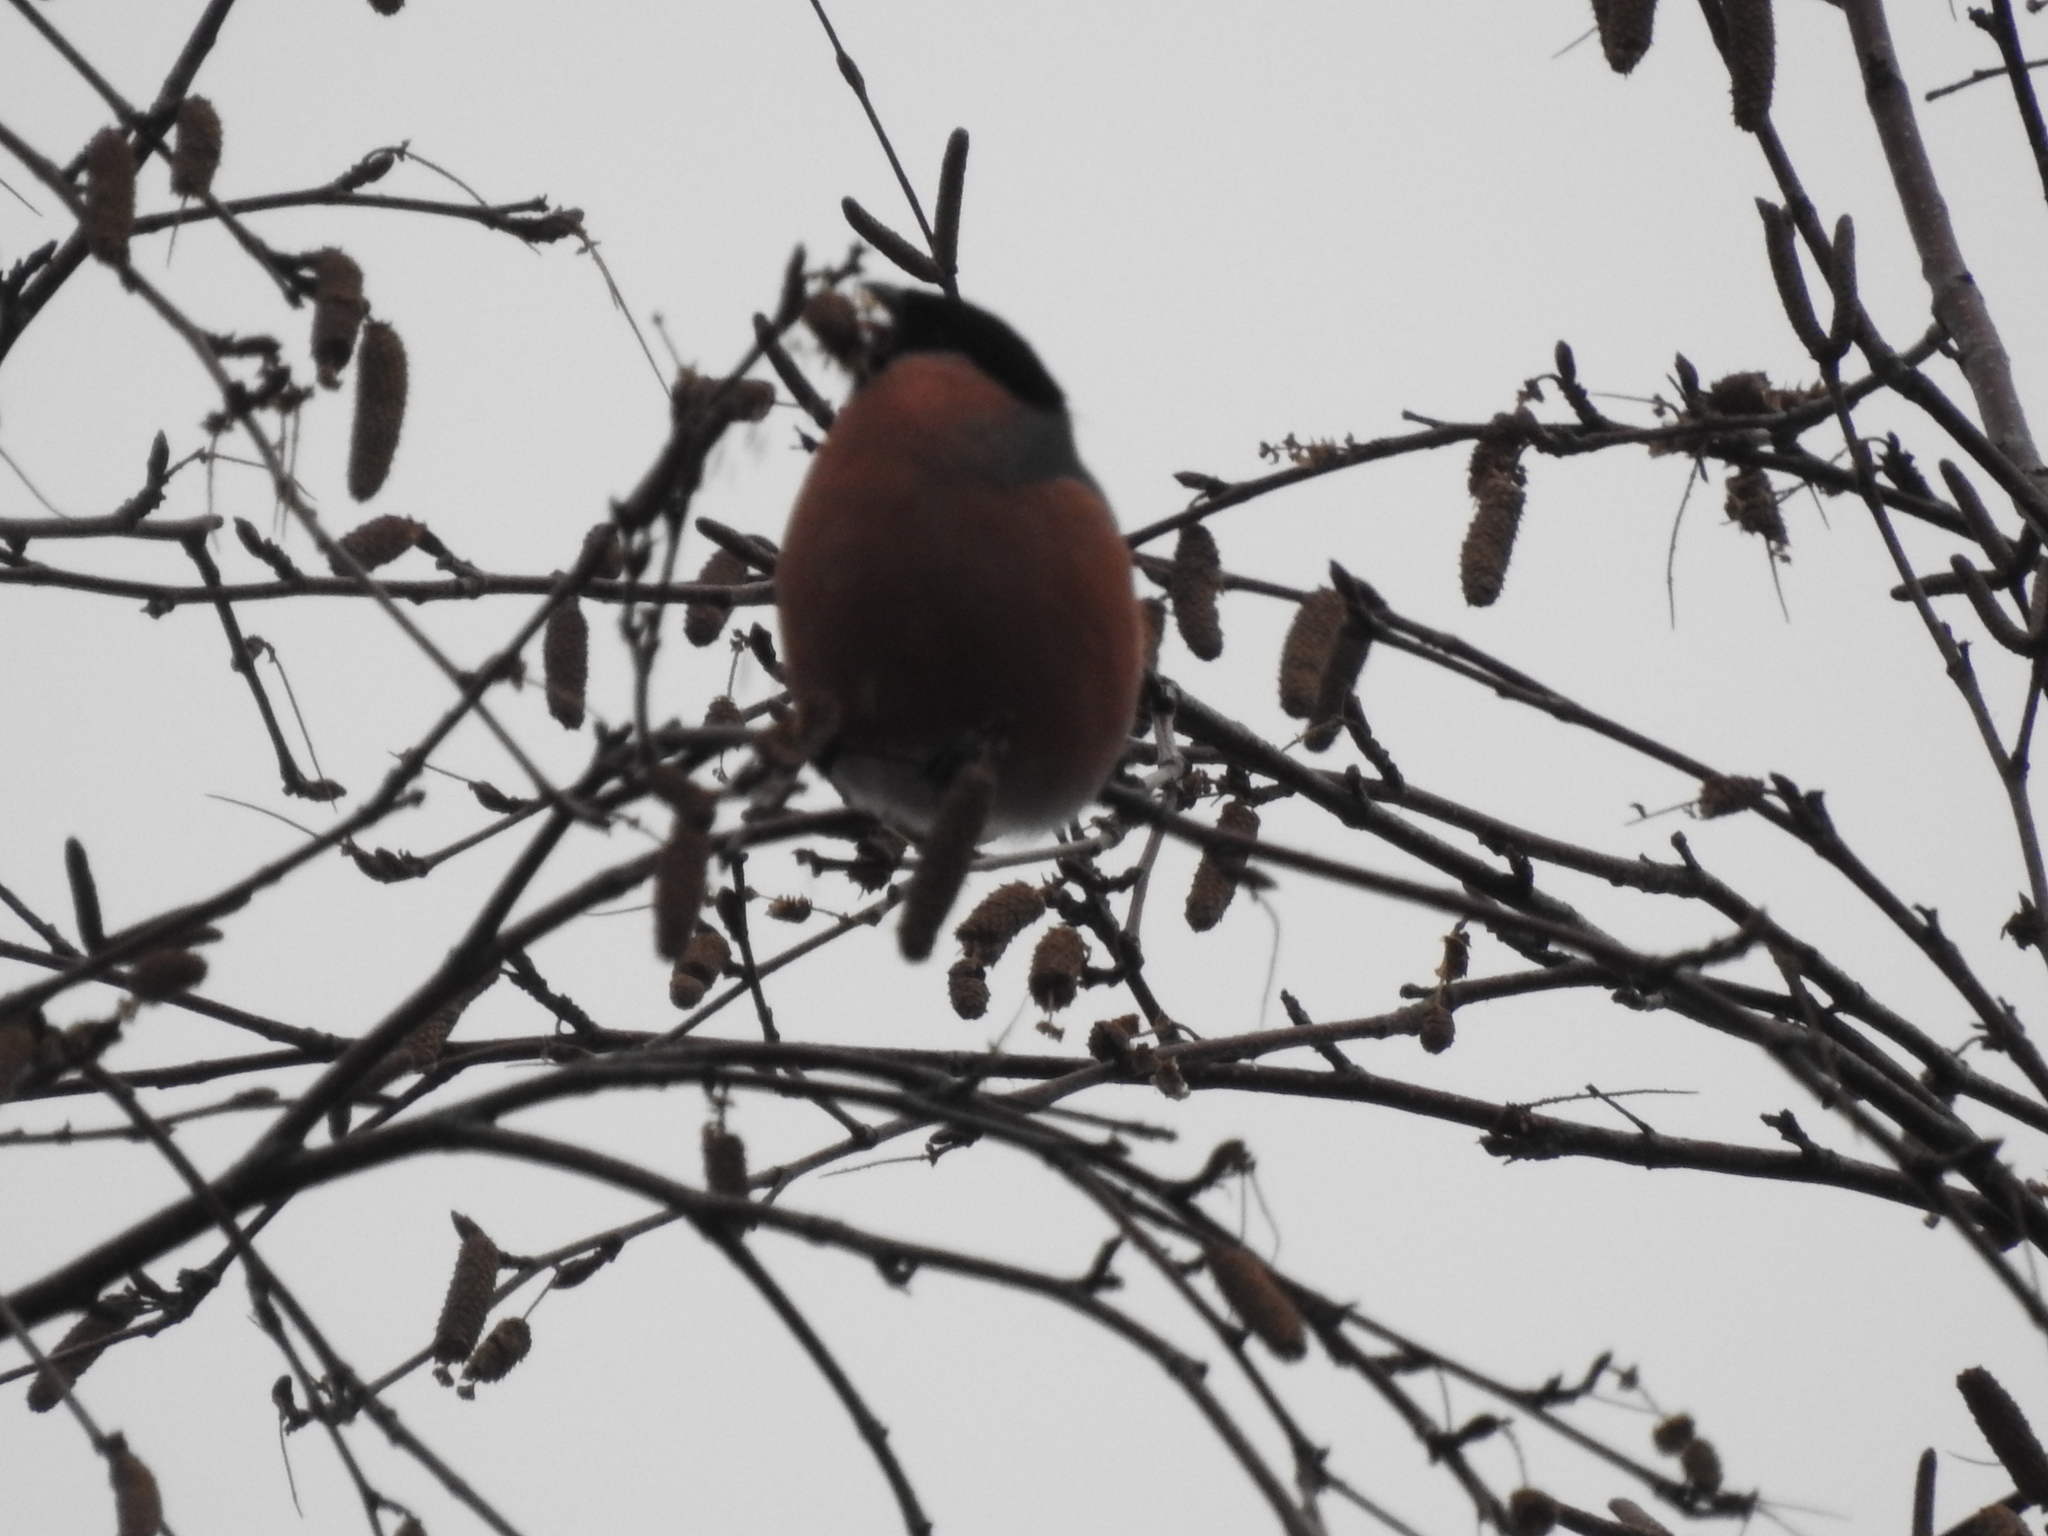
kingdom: Animalia
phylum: Chordata
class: Aves
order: Passeriformes
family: Fringillidae
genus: Pyrrhula
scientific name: Pyrrhula pyrrhula
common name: Eurasian bullfinch
